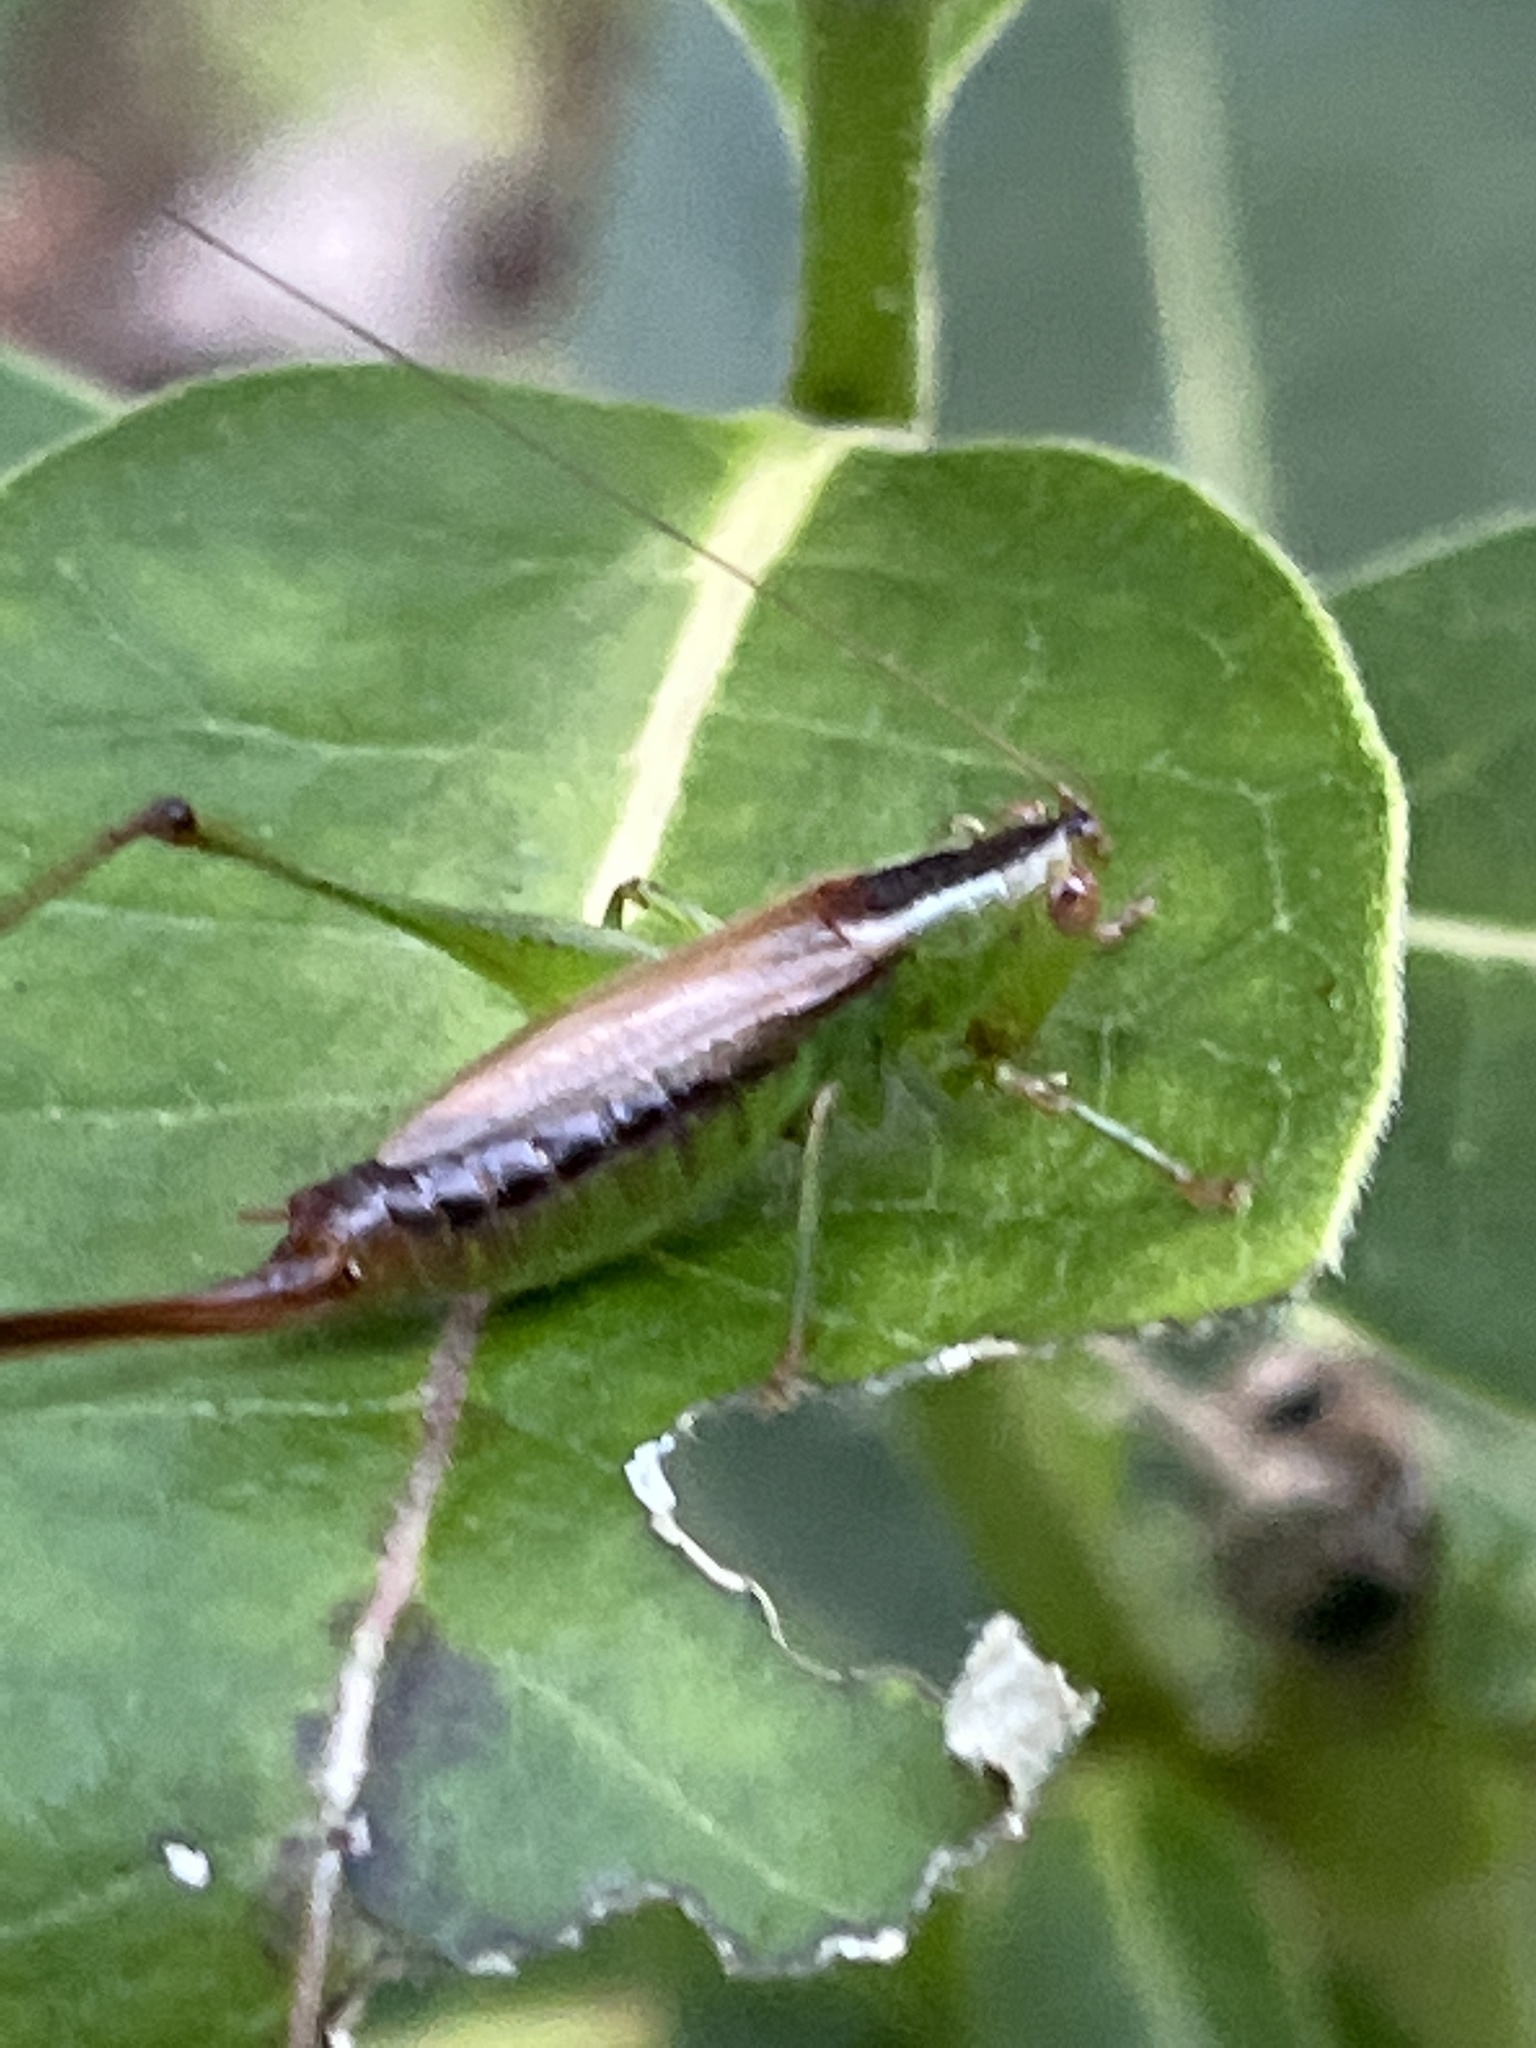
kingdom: Animalia
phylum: Arthropoda
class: Insecta
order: Orthoptera
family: Tettigoniidae
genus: Conocephalus
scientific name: Conocephalus brevipennis
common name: Short-winged meadow katydid
